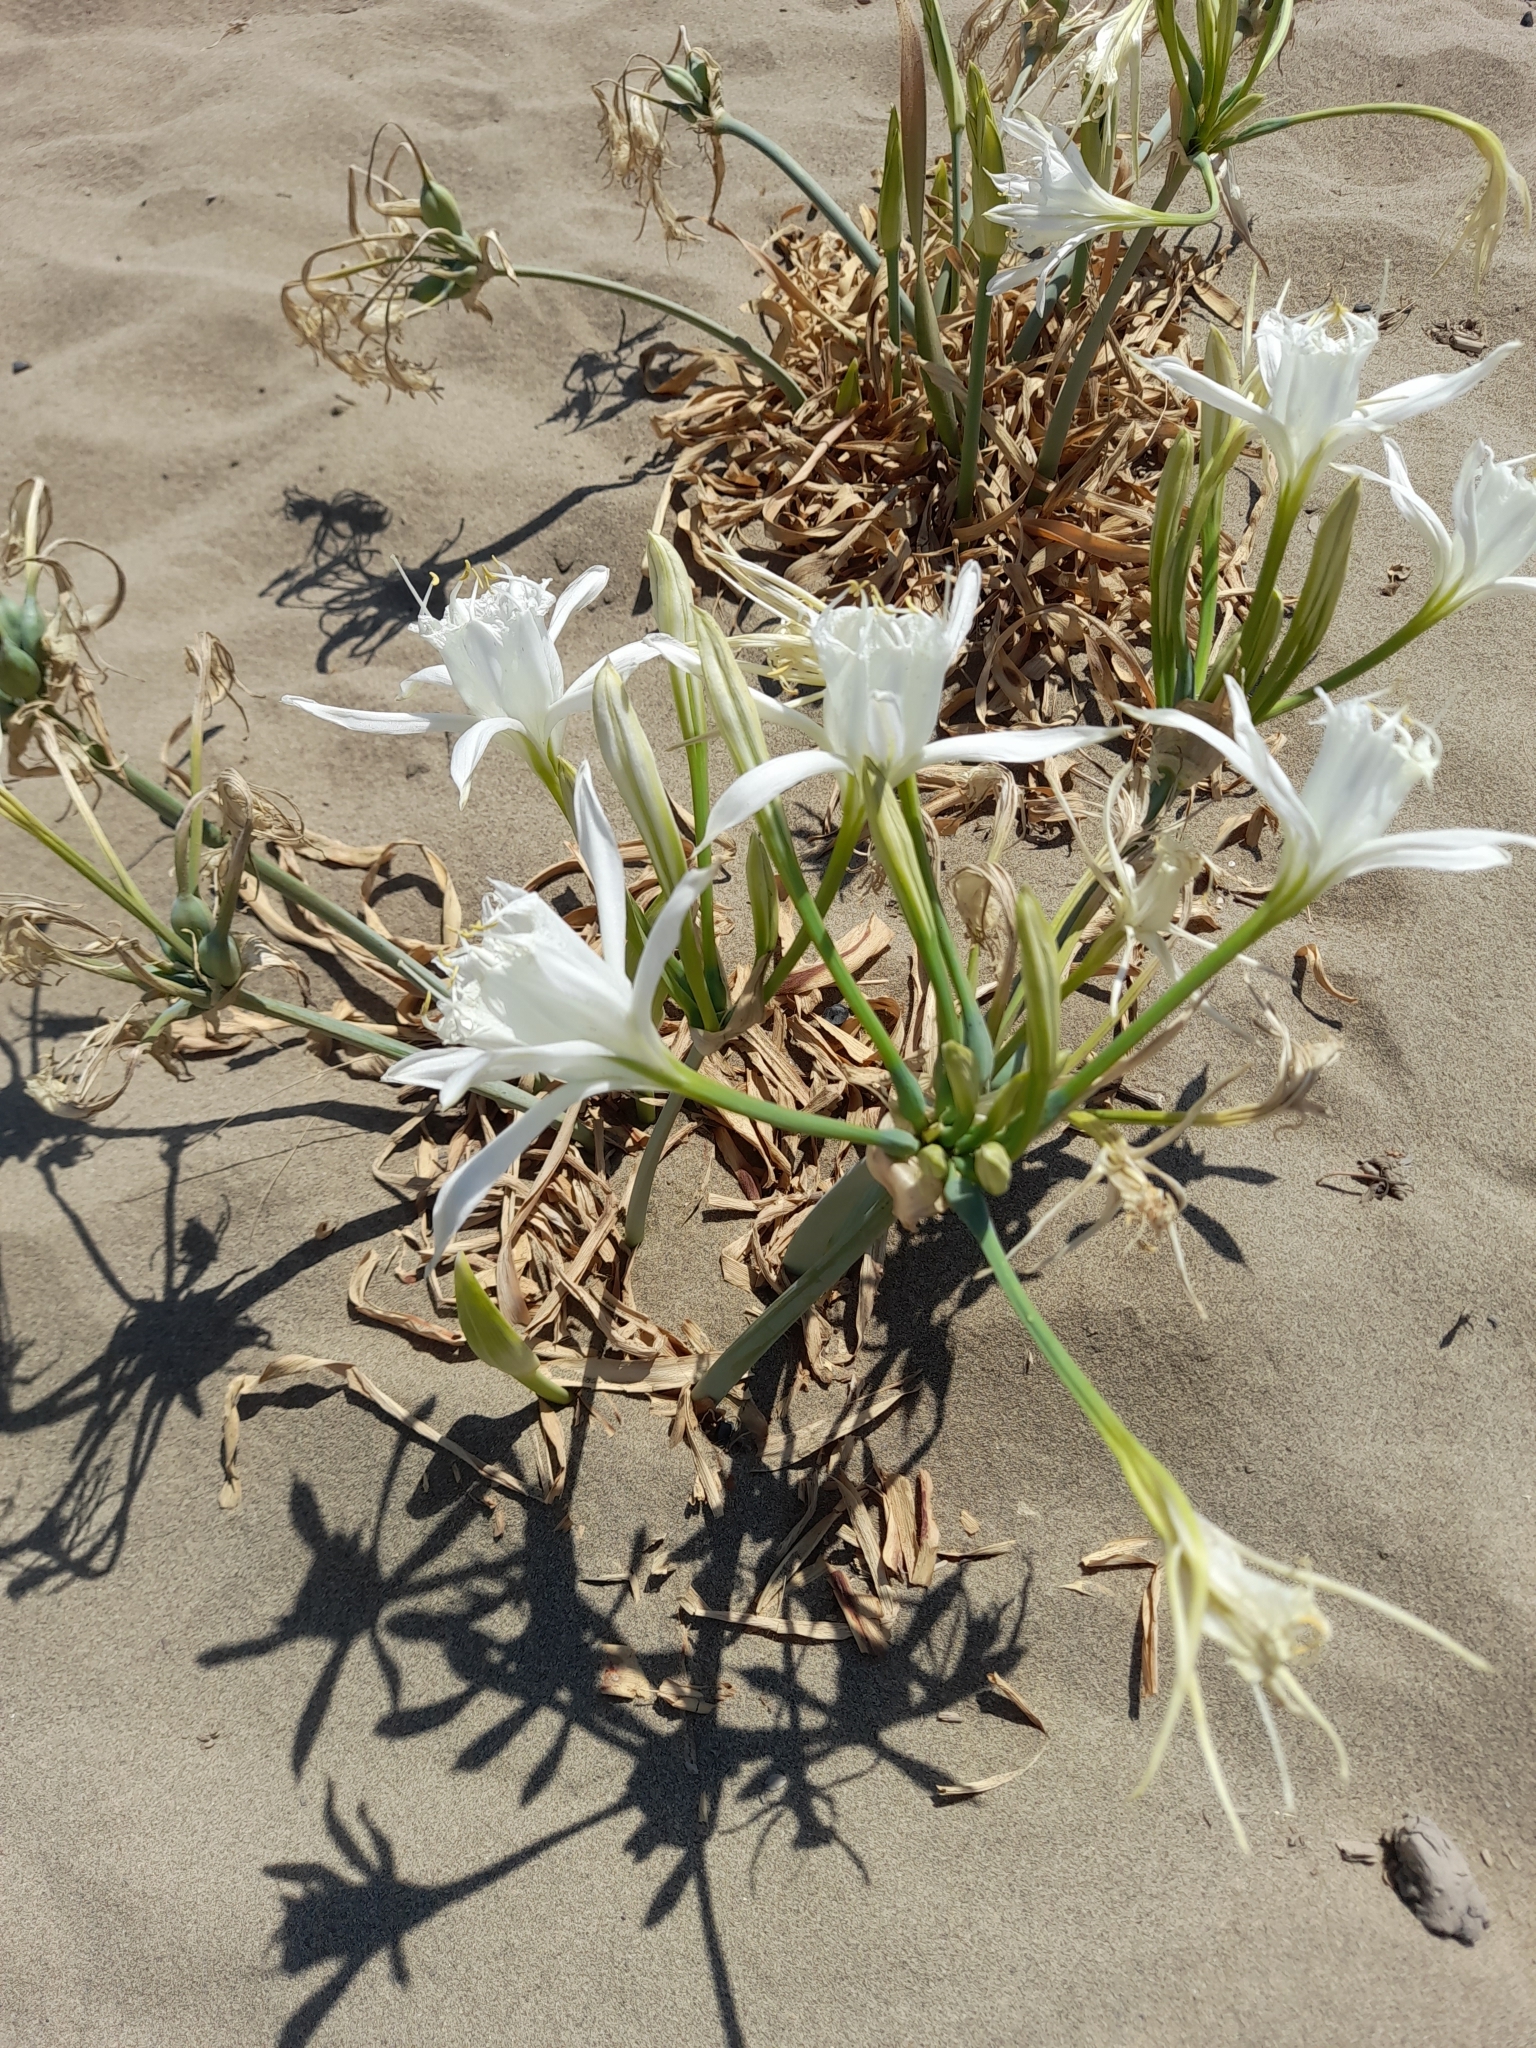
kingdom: Plantae
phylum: Tracheophyta
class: Liliopsida
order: Asparagales
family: Amaryllidaceae
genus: Pancratium
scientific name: Pancratium maritimum
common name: Sea-daffodil
